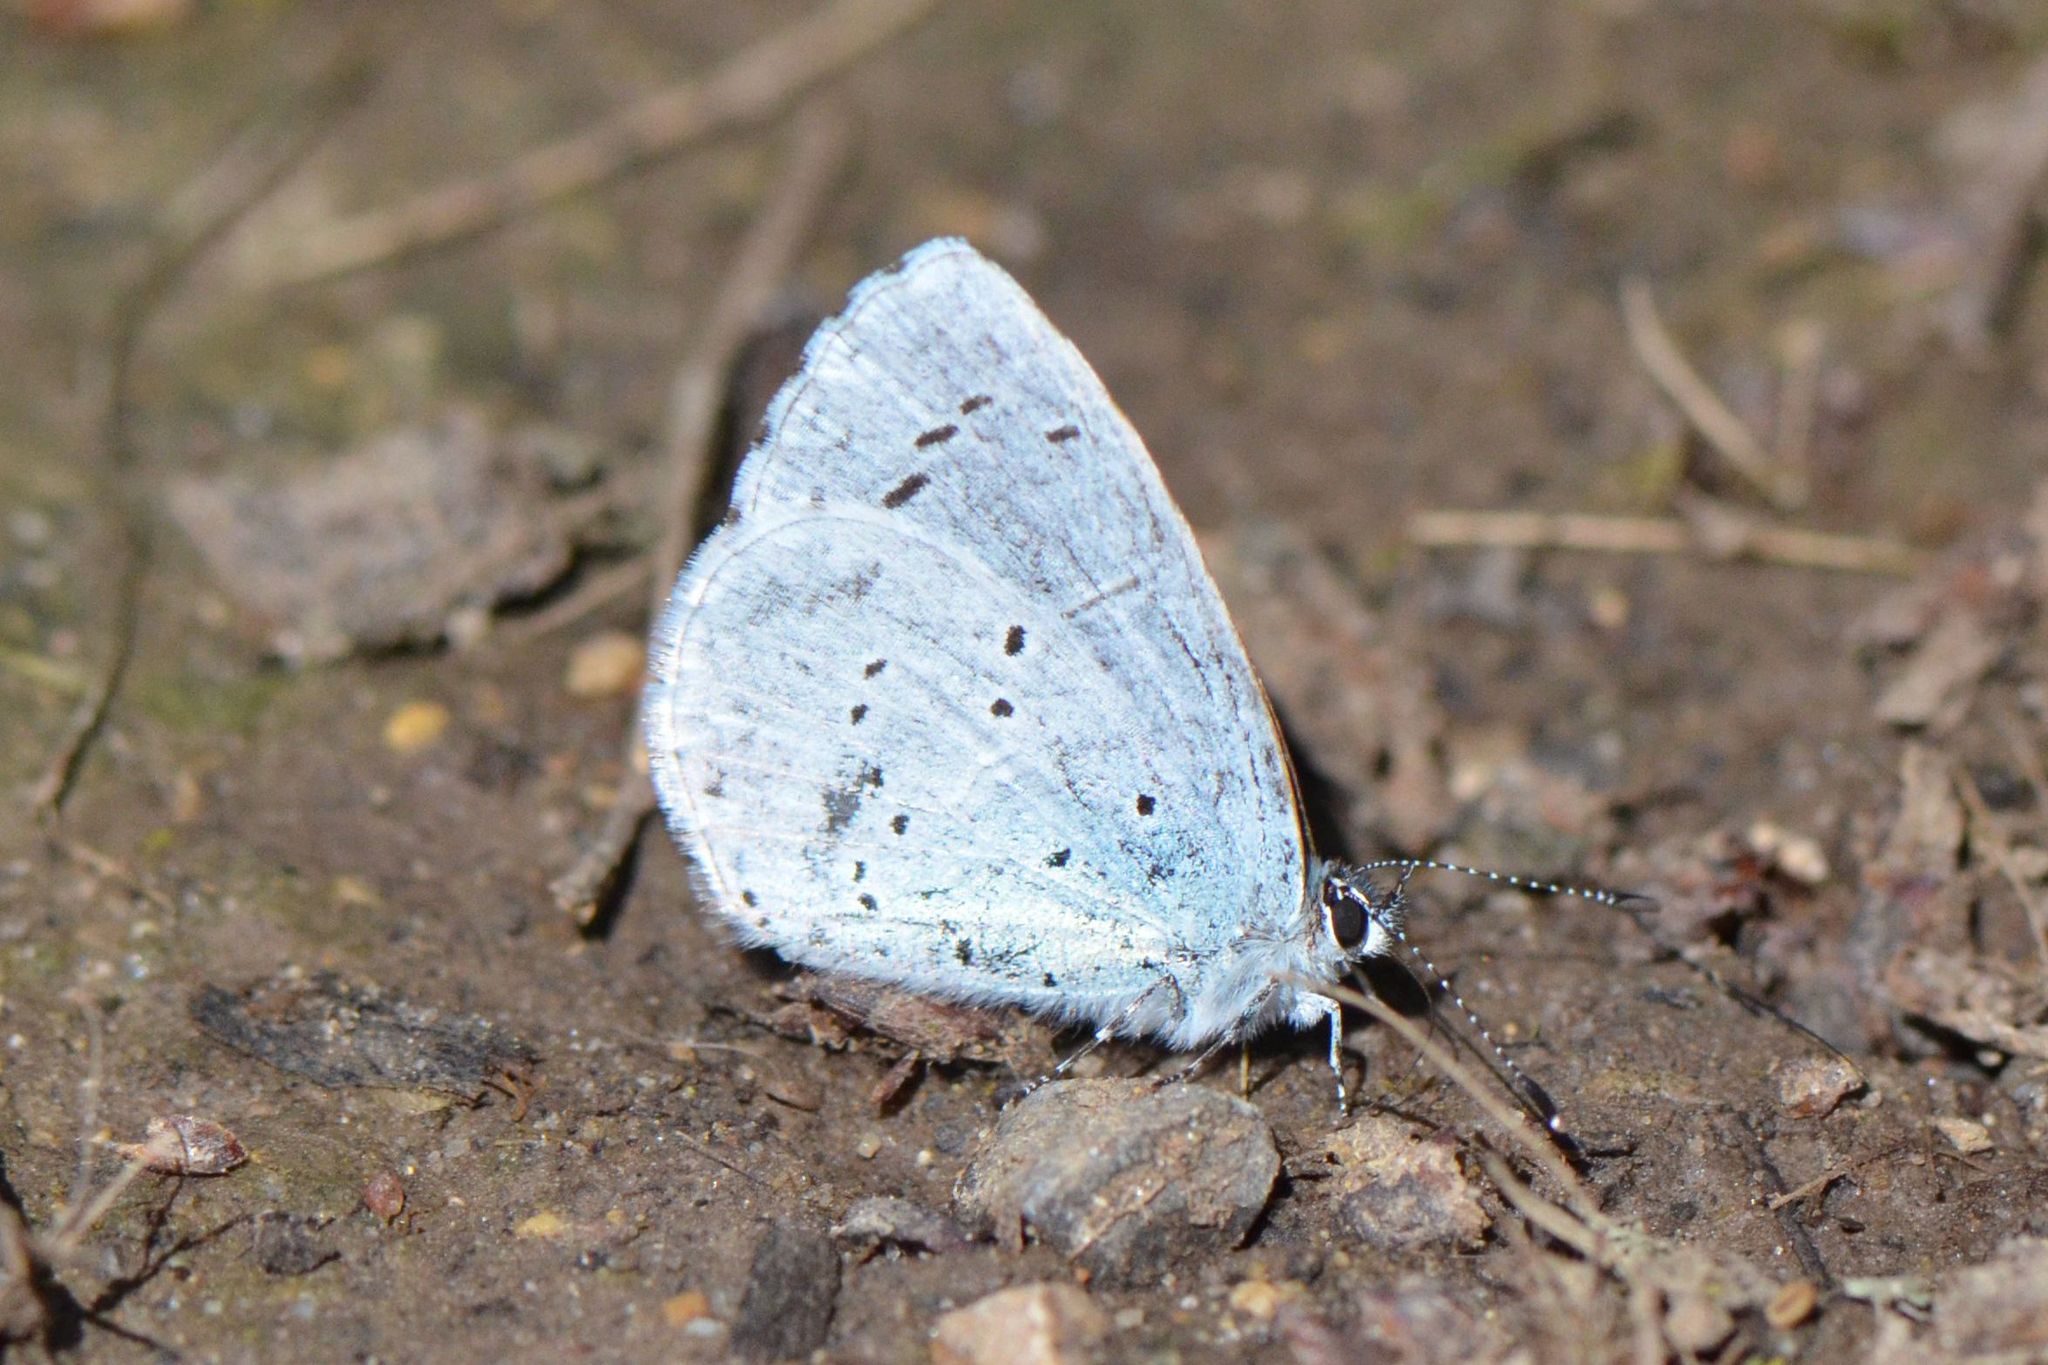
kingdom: Animalia
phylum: Arthropoda
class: Insecta
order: Lepidoptera
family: Lycaenidae
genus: Celastrina
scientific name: Celastrina argiolus
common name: Holly blue
